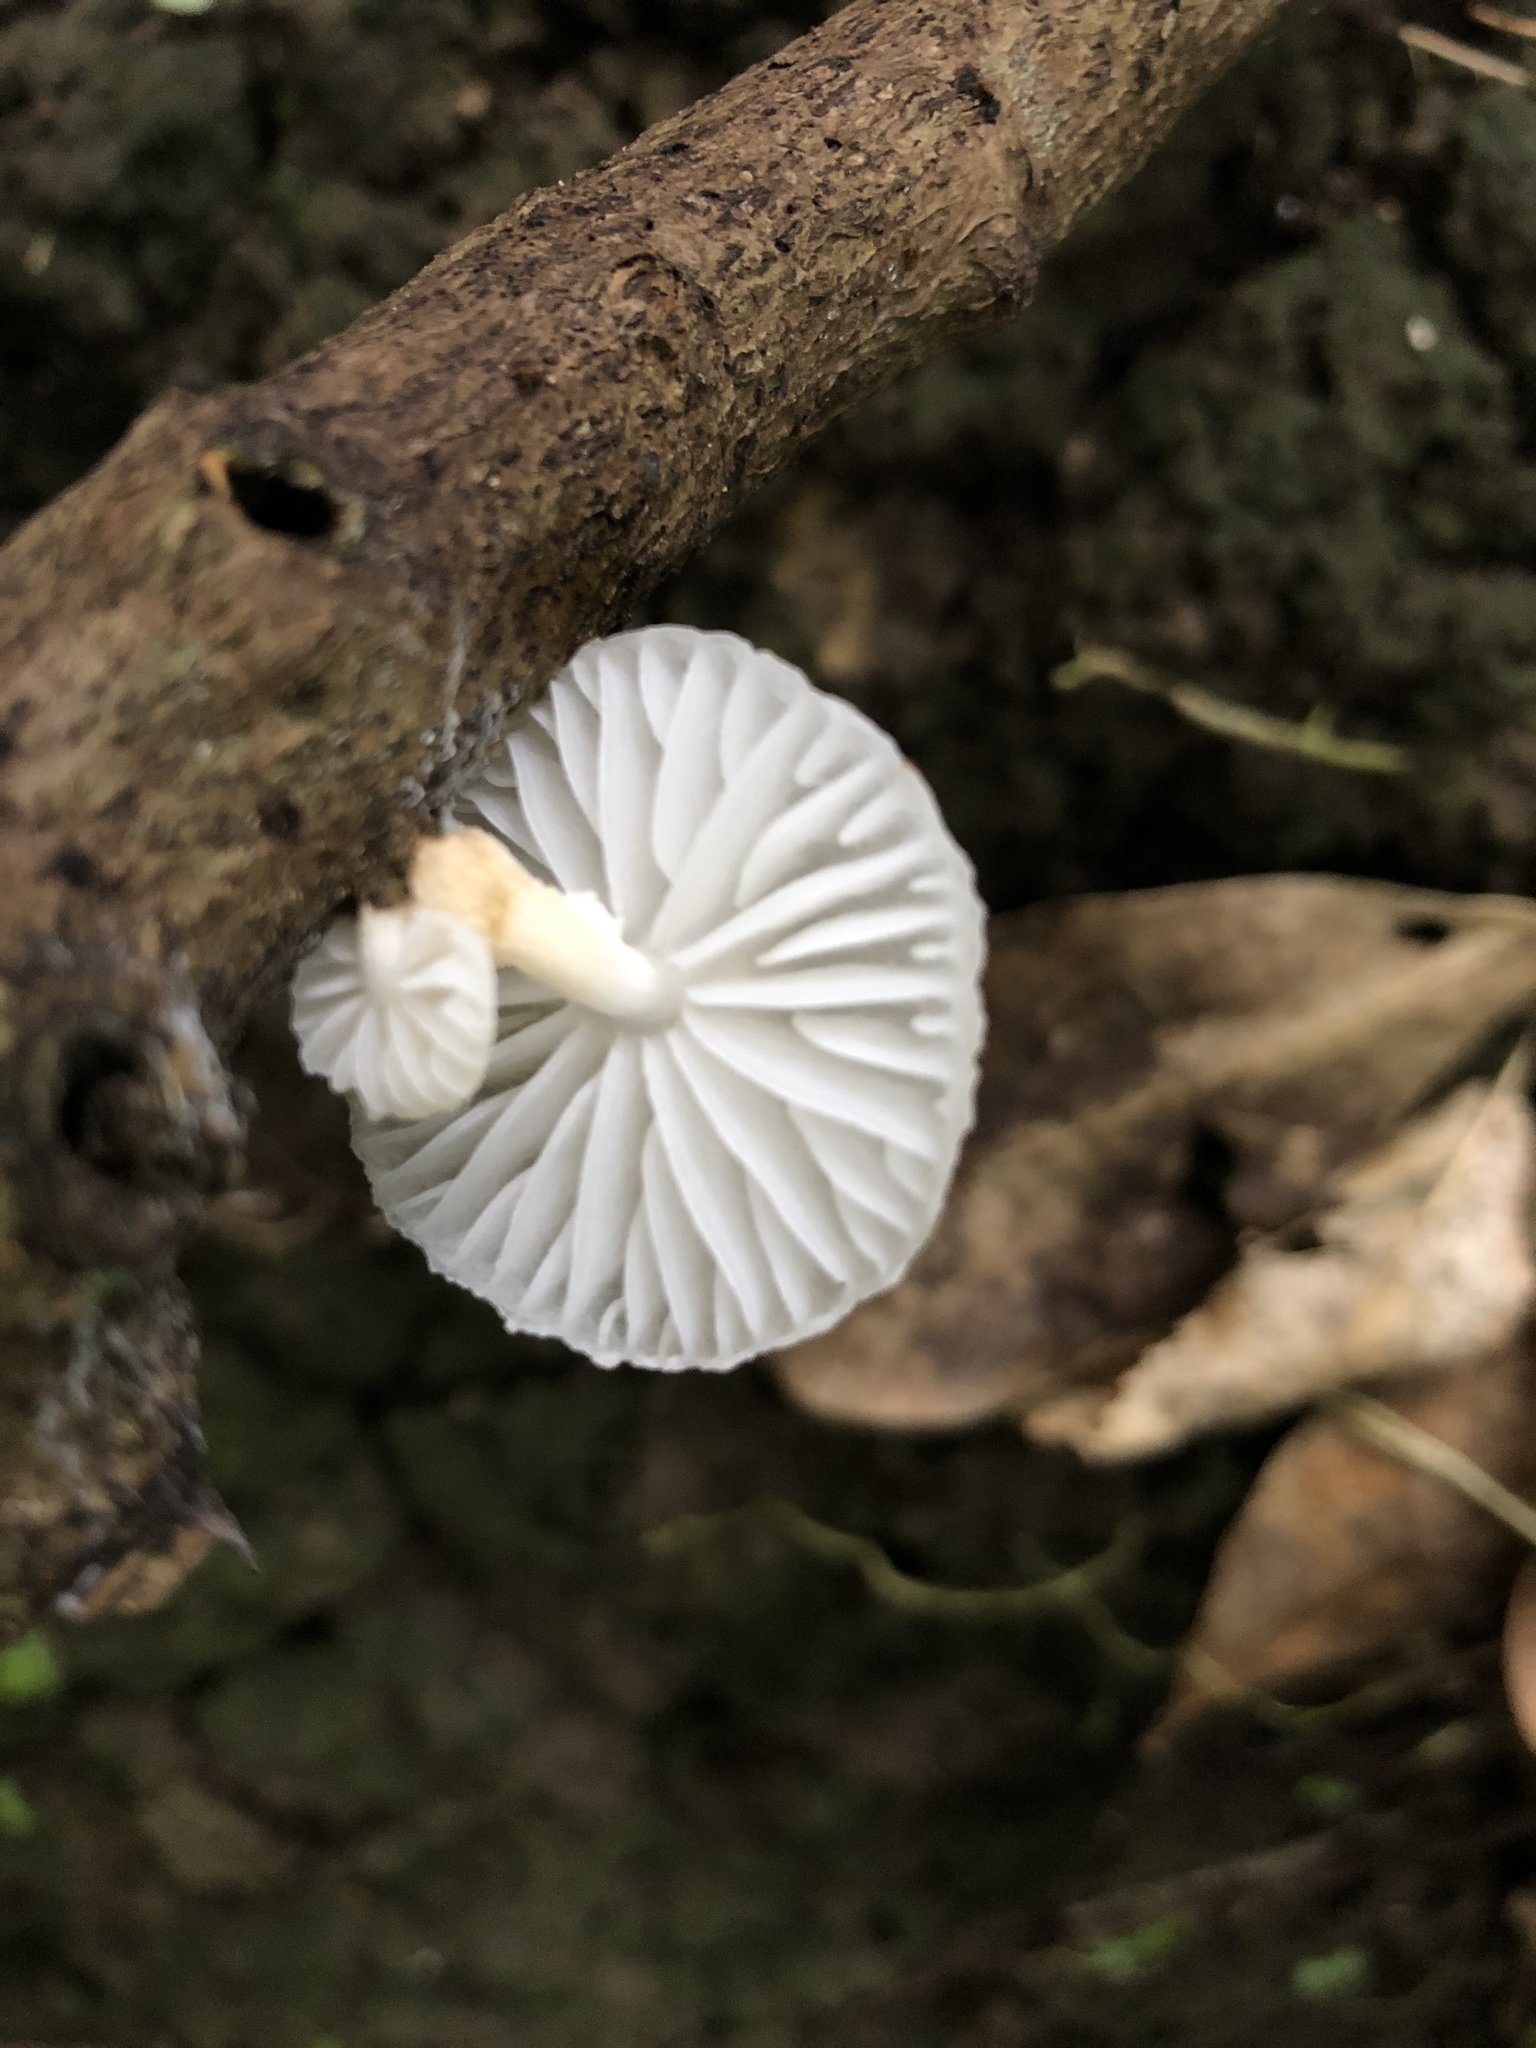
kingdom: Fungi
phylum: Basidiomycota
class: Agaricomycetes
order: Agaricales
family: Physalacriaceae
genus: Oudemansiella
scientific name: Oudemansiella australis
